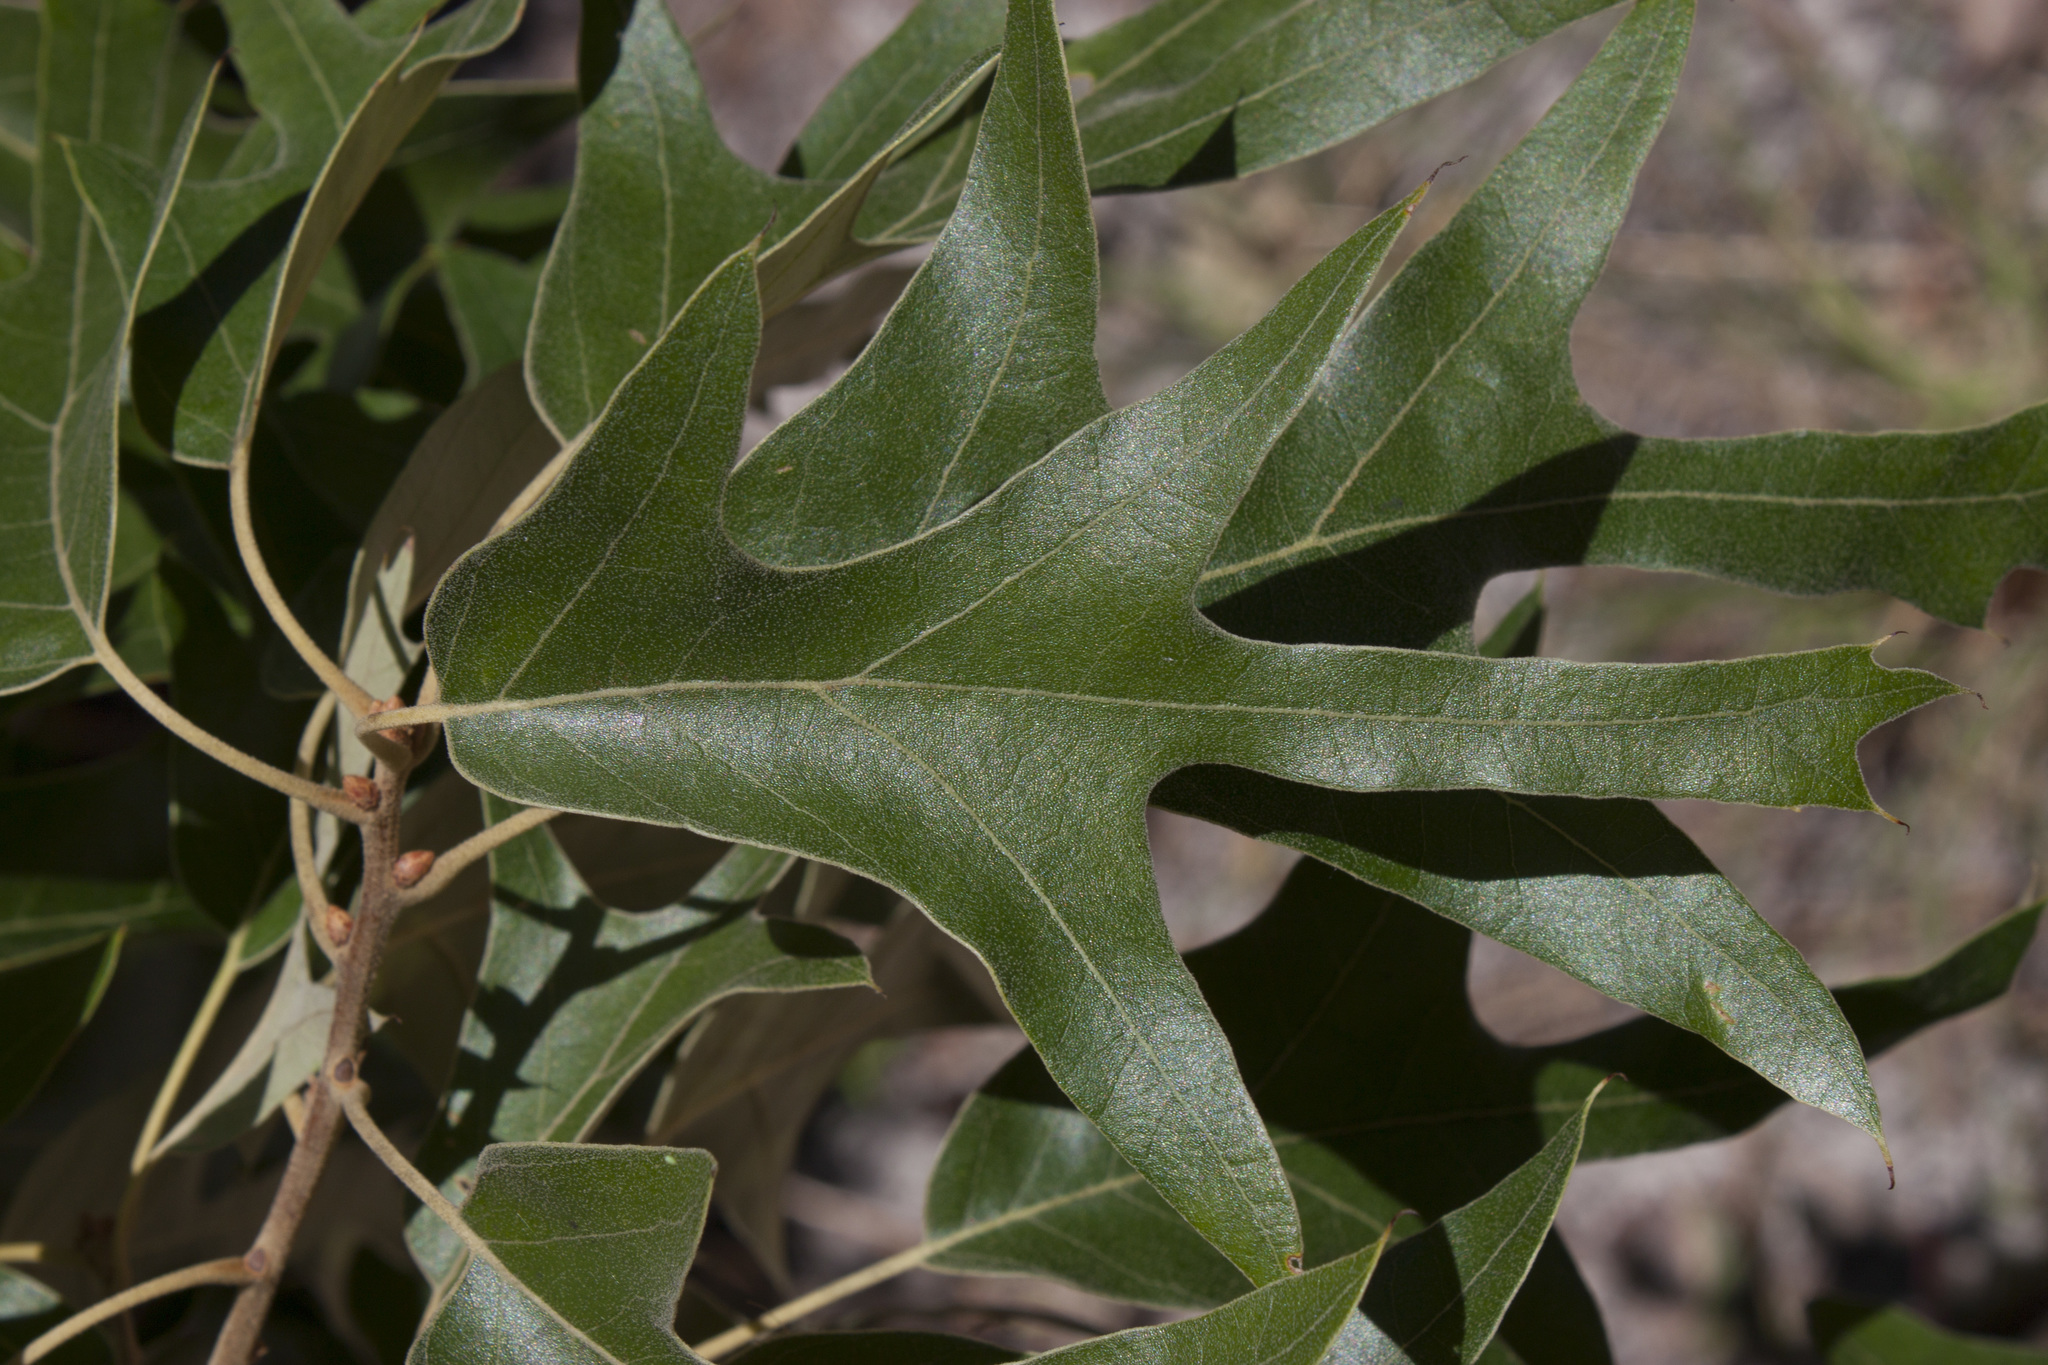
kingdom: Plantae
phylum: Tracheophyta
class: Magnoliopsida
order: Fagales
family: Fagaceae
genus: Quercus
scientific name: Quercus falcata
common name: Southern red oak
